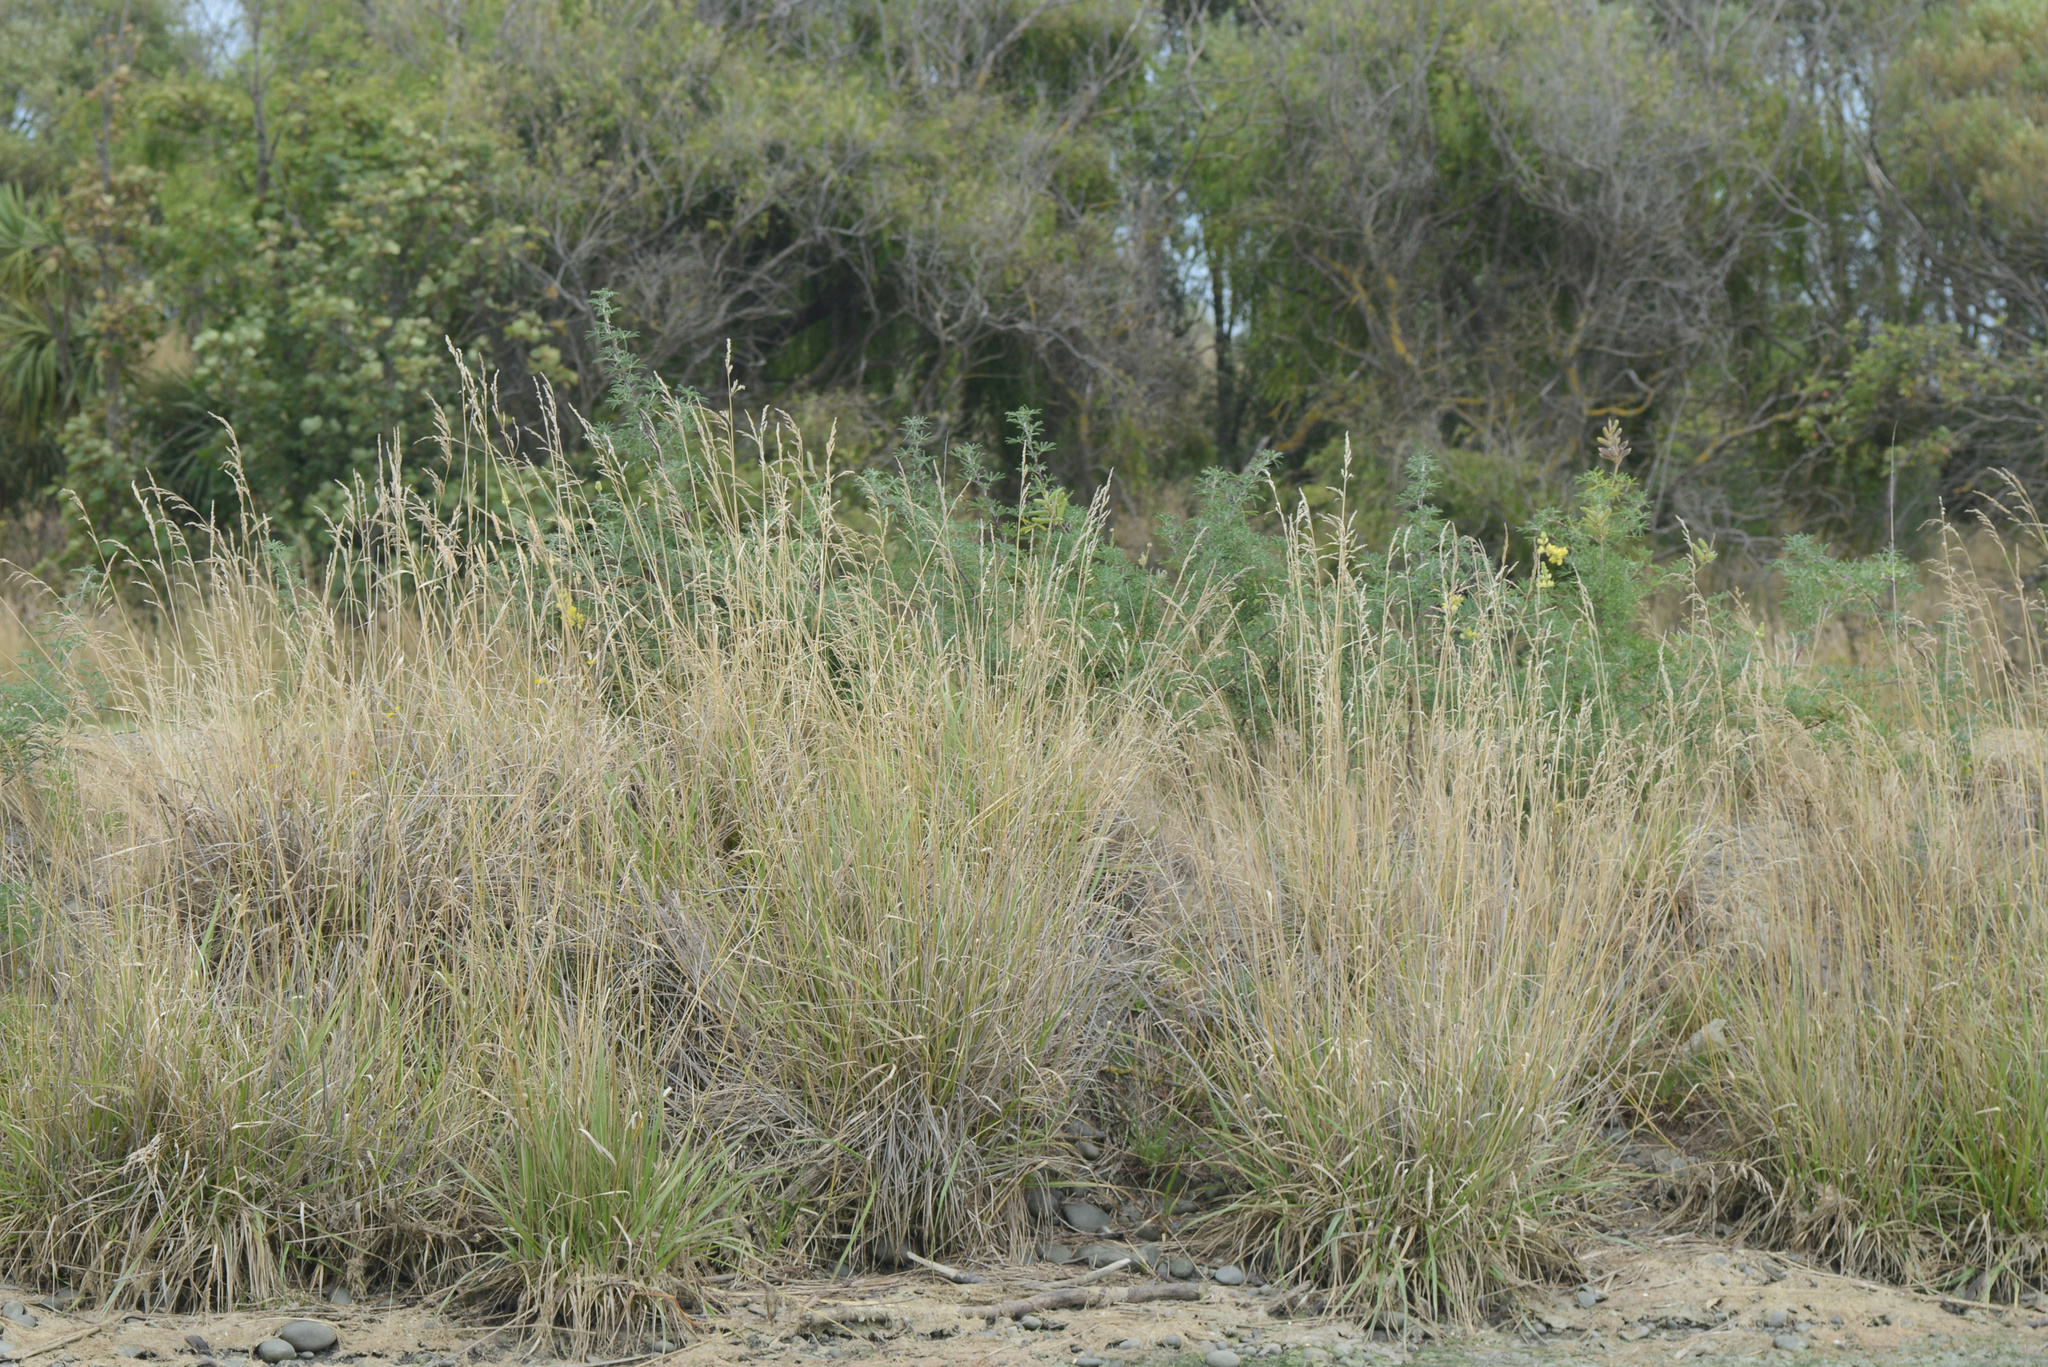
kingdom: Plantae
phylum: Tracheophyta
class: Magnoliopsida
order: Fabales
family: Fabaceae
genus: Lupinus
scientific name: Lupinus arboreus
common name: Yellow bush lupine
